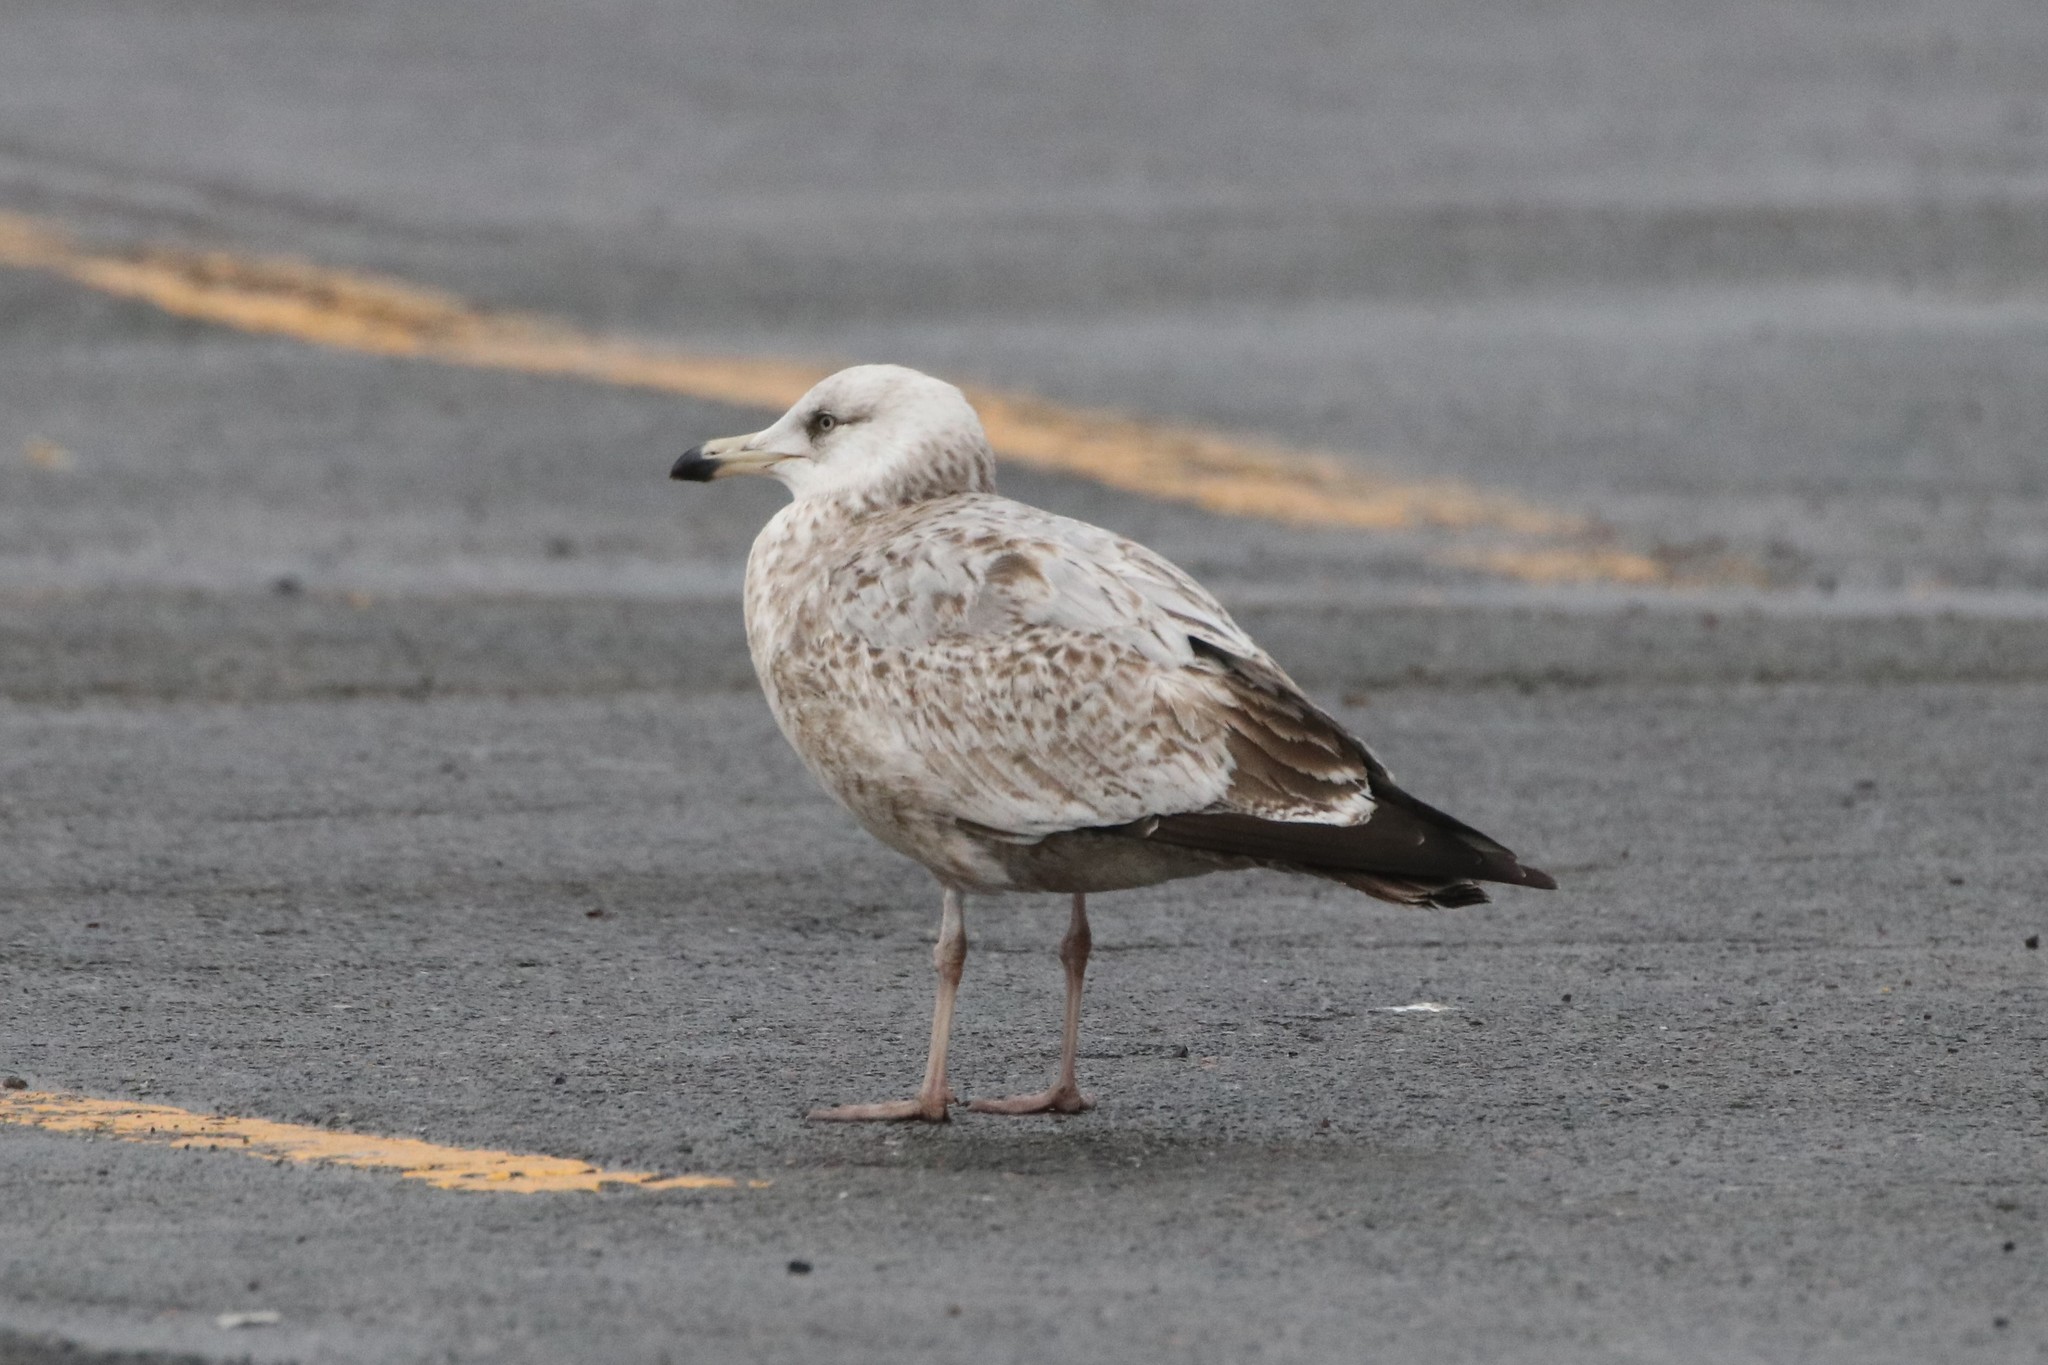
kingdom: Animalia
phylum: Chordata
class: Aves
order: Charadriiformes
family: Laridae
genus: Larus
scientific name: Larus argentatus
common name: Herring gull
